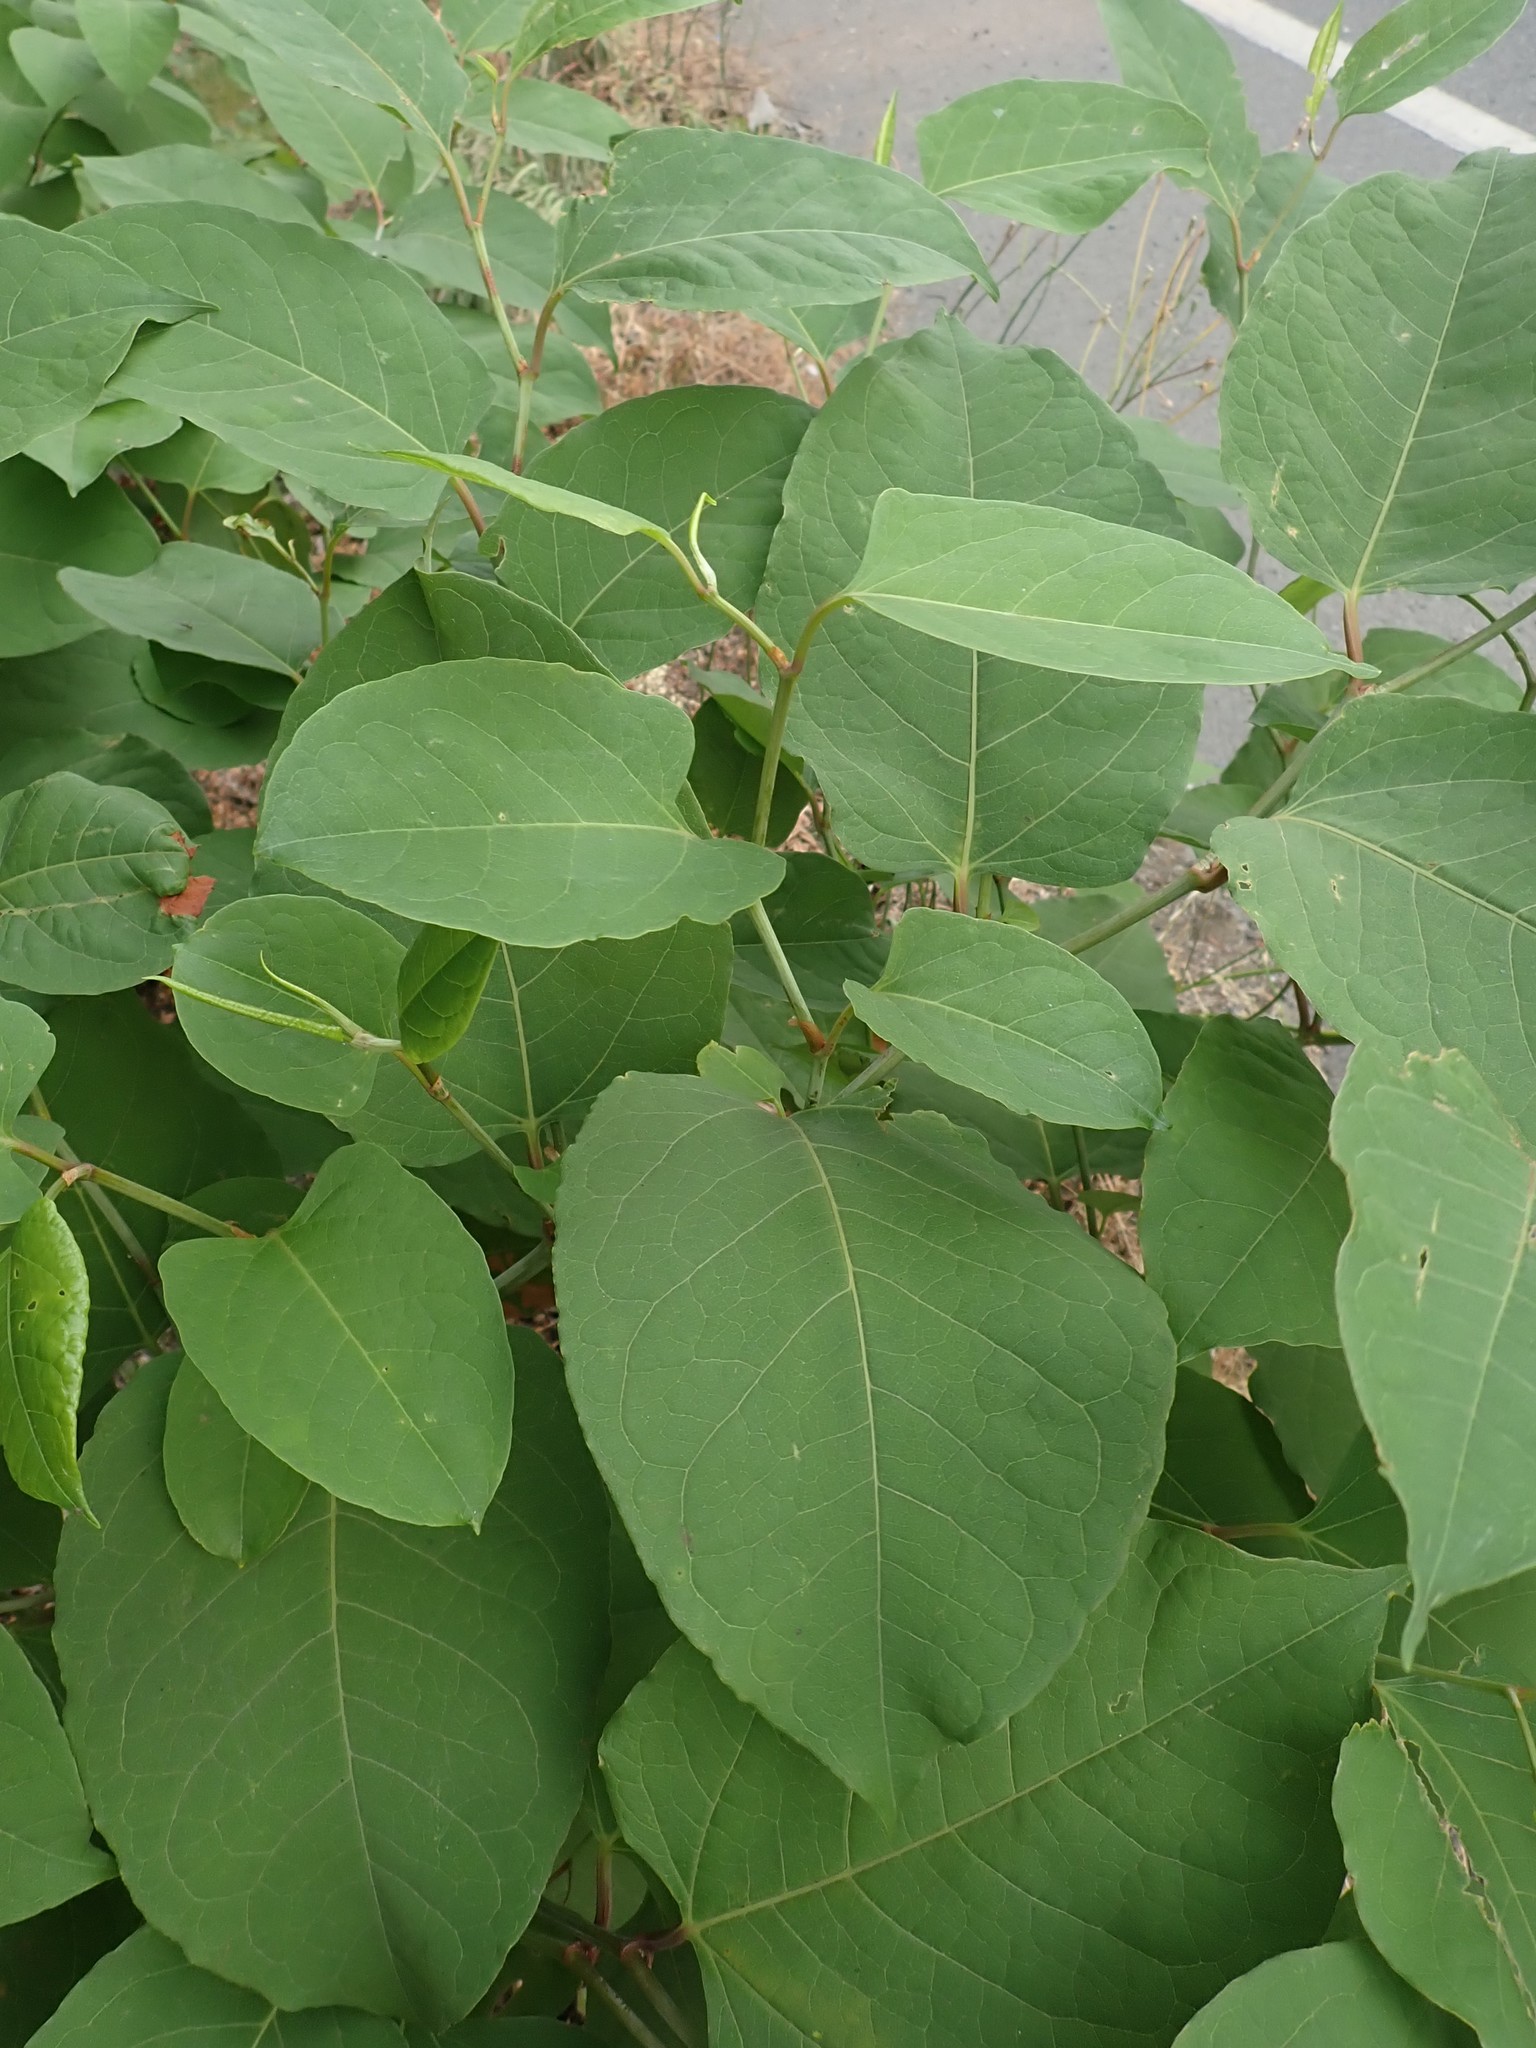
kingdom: Plantae
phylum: Tracheophyta
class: Magnoliopsida
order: Caryophyllales
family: Polygonaceae
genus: Reynoutria
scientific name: Reynoutria bohemica
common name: Bohemian knotweed
